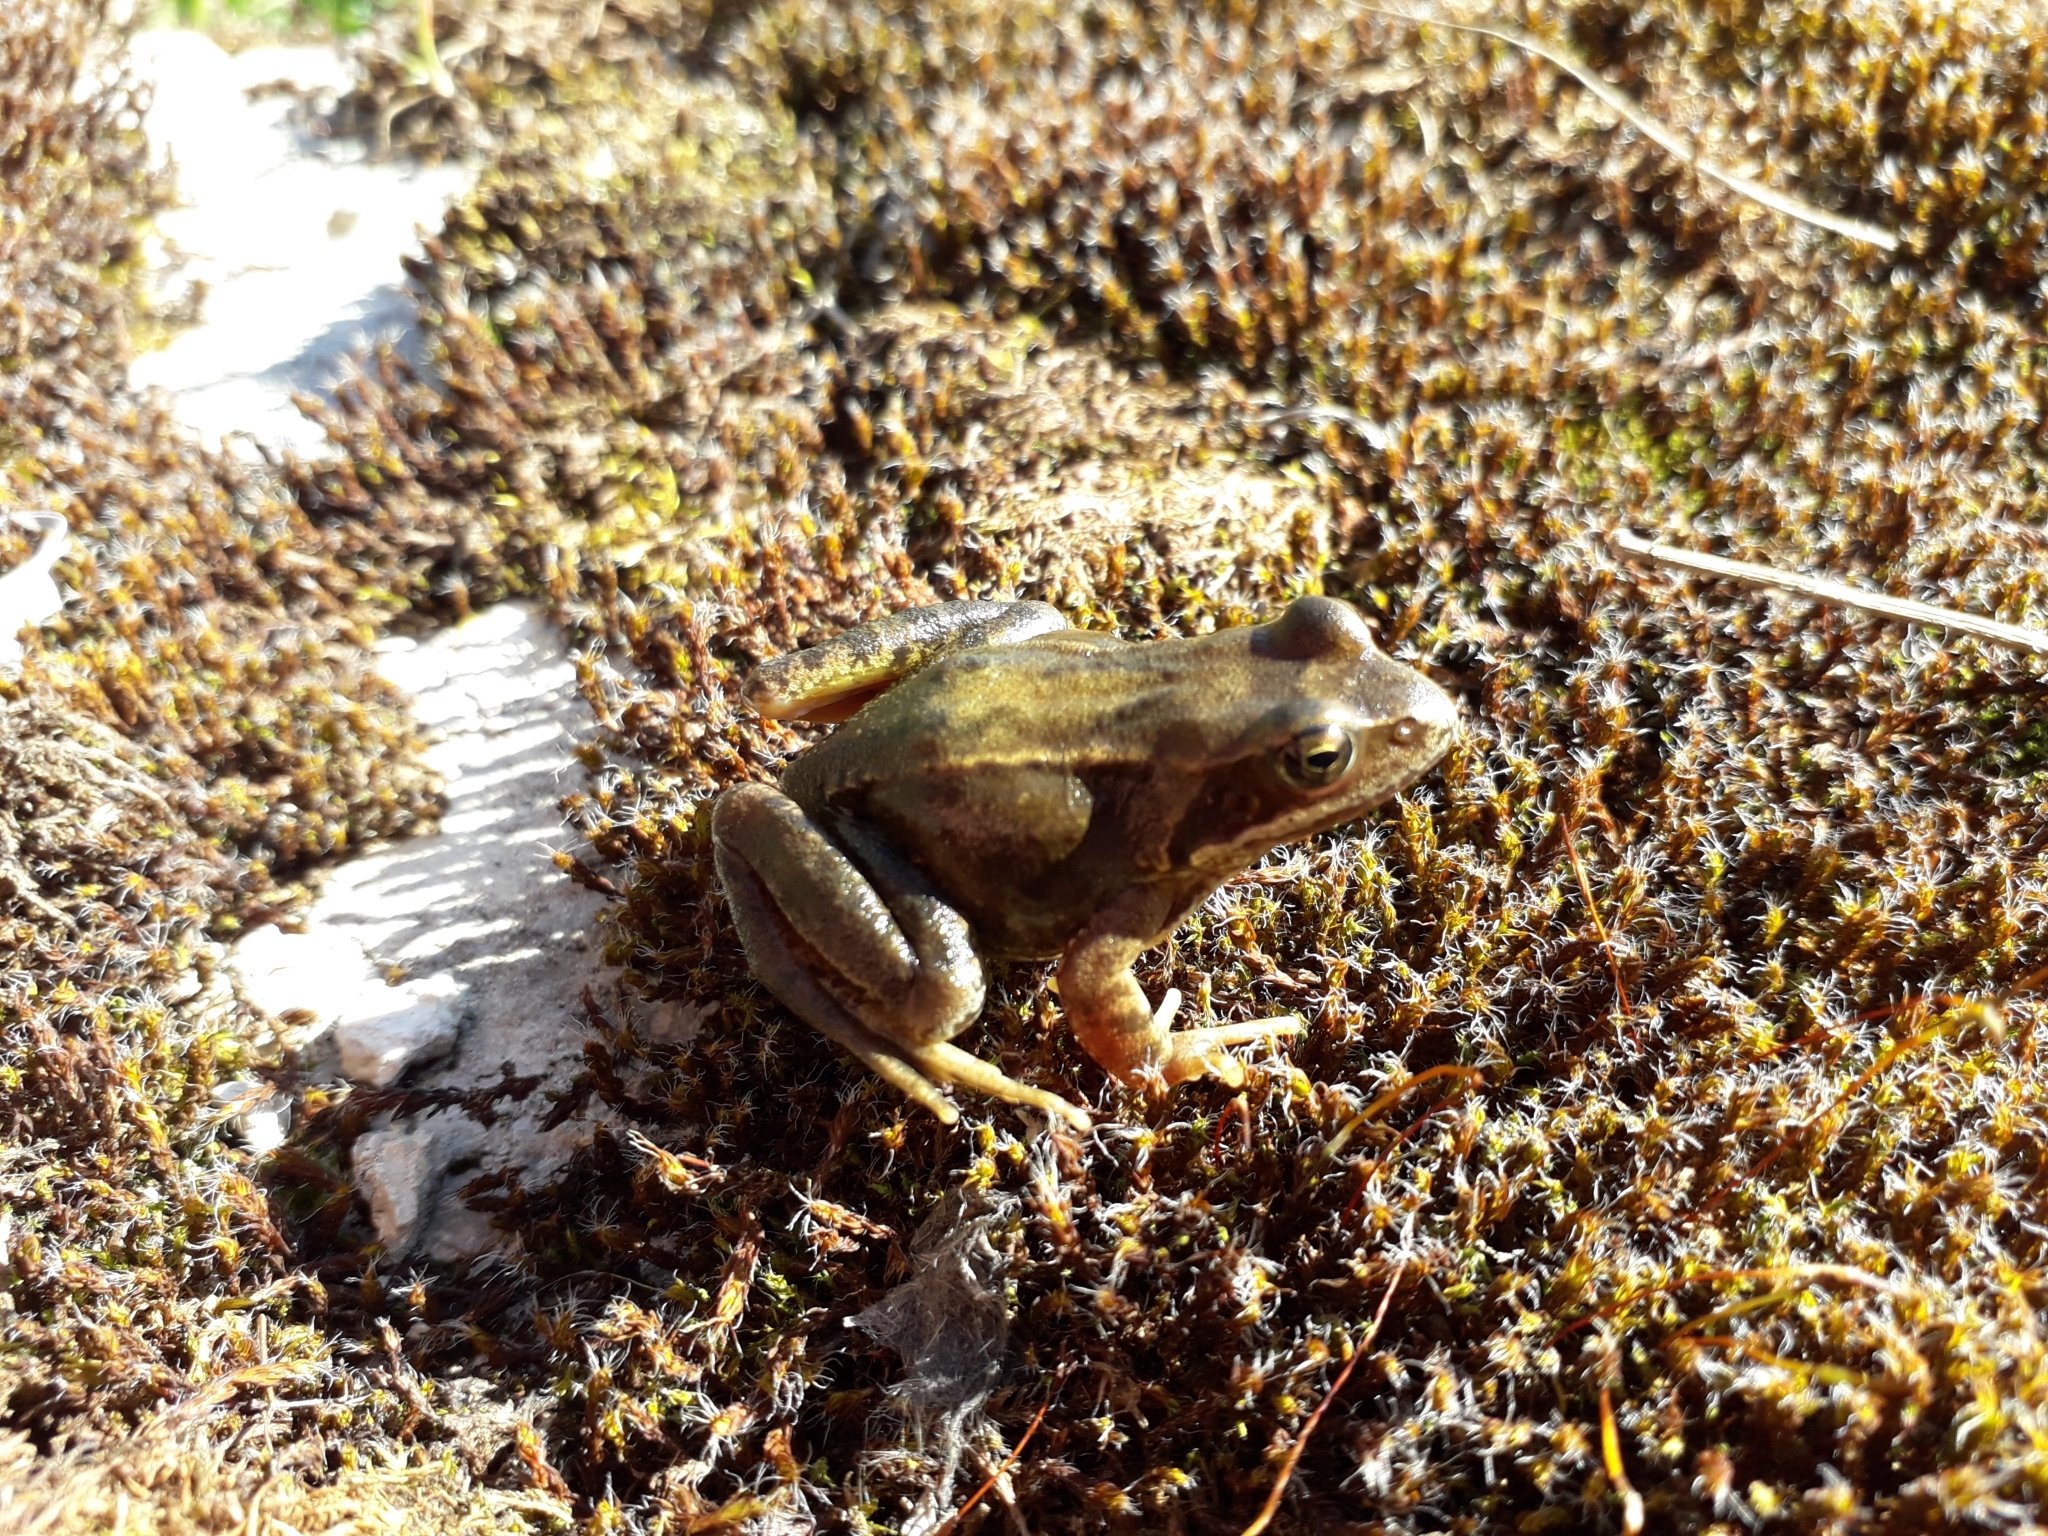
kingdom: Animalia
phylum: Chordata
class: Amphibia
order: Anura
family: Ranidae
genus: Rana
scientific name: Rana temporaria
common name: Common frog
